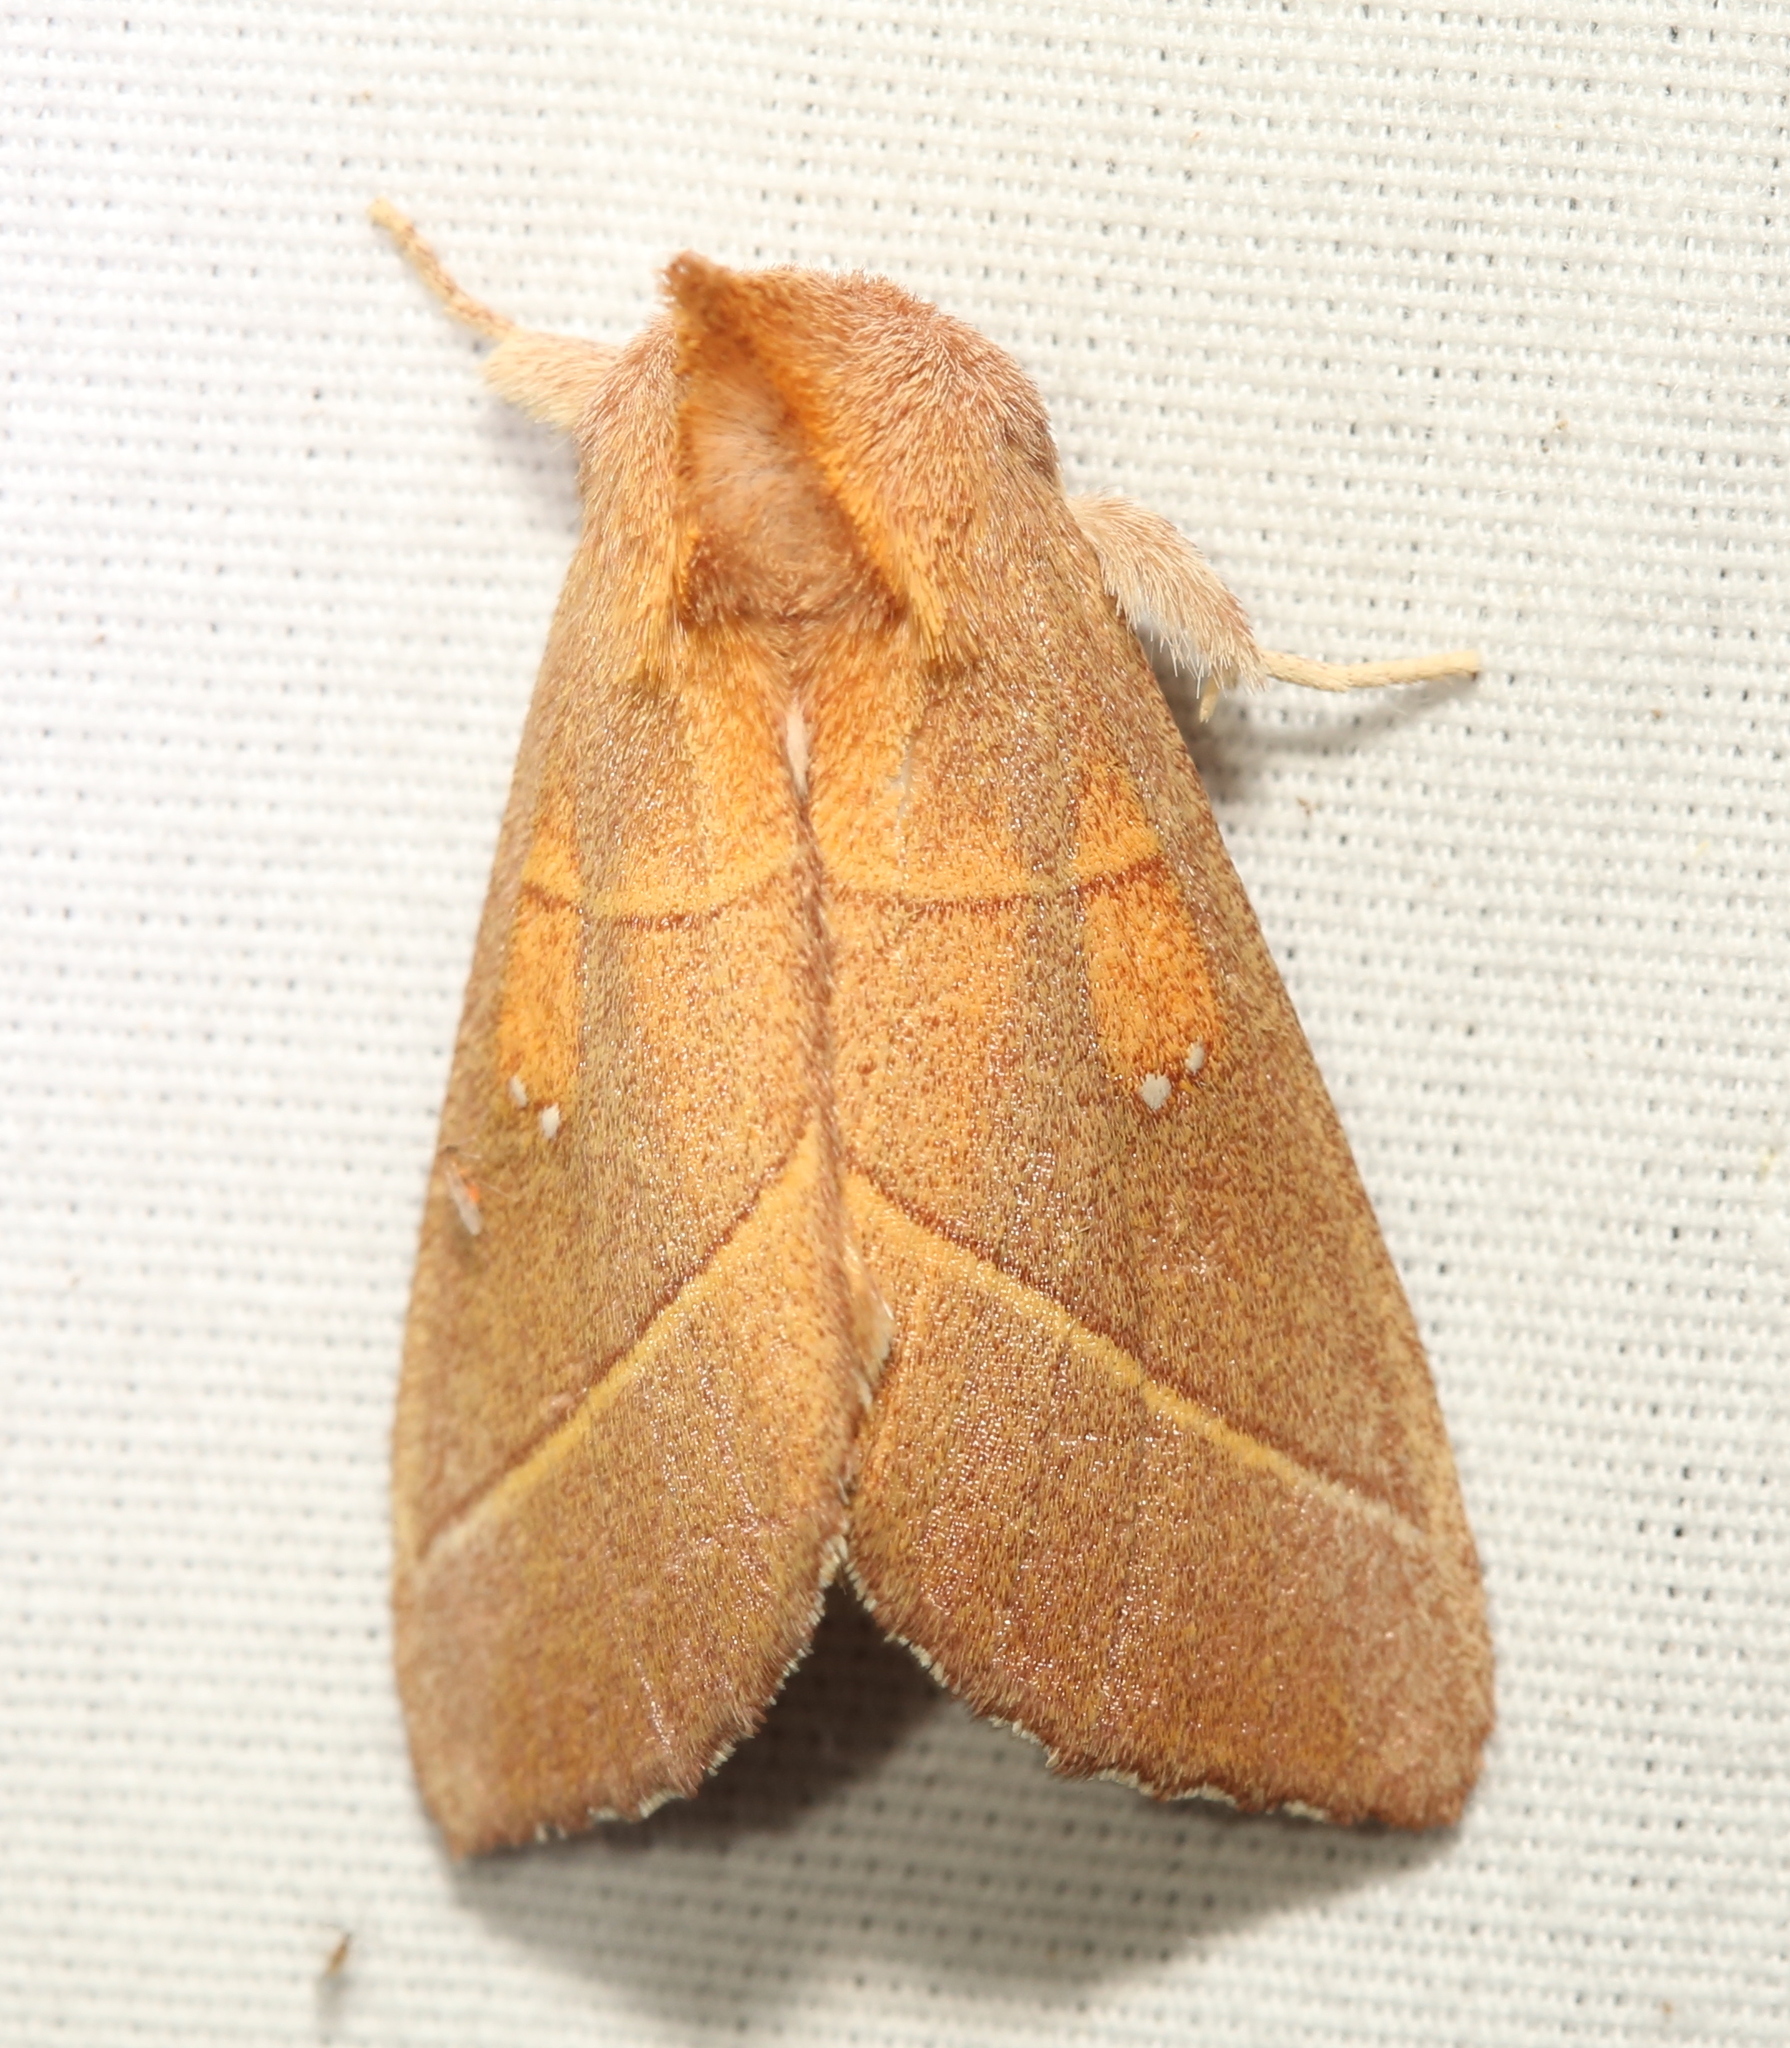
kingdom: Animalia
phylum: Arthropoda
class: Insecta
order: Lepidoptera
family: Notodontidae
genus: Nadata
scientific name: Nadata gibbosa
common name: White-dotted prominent
